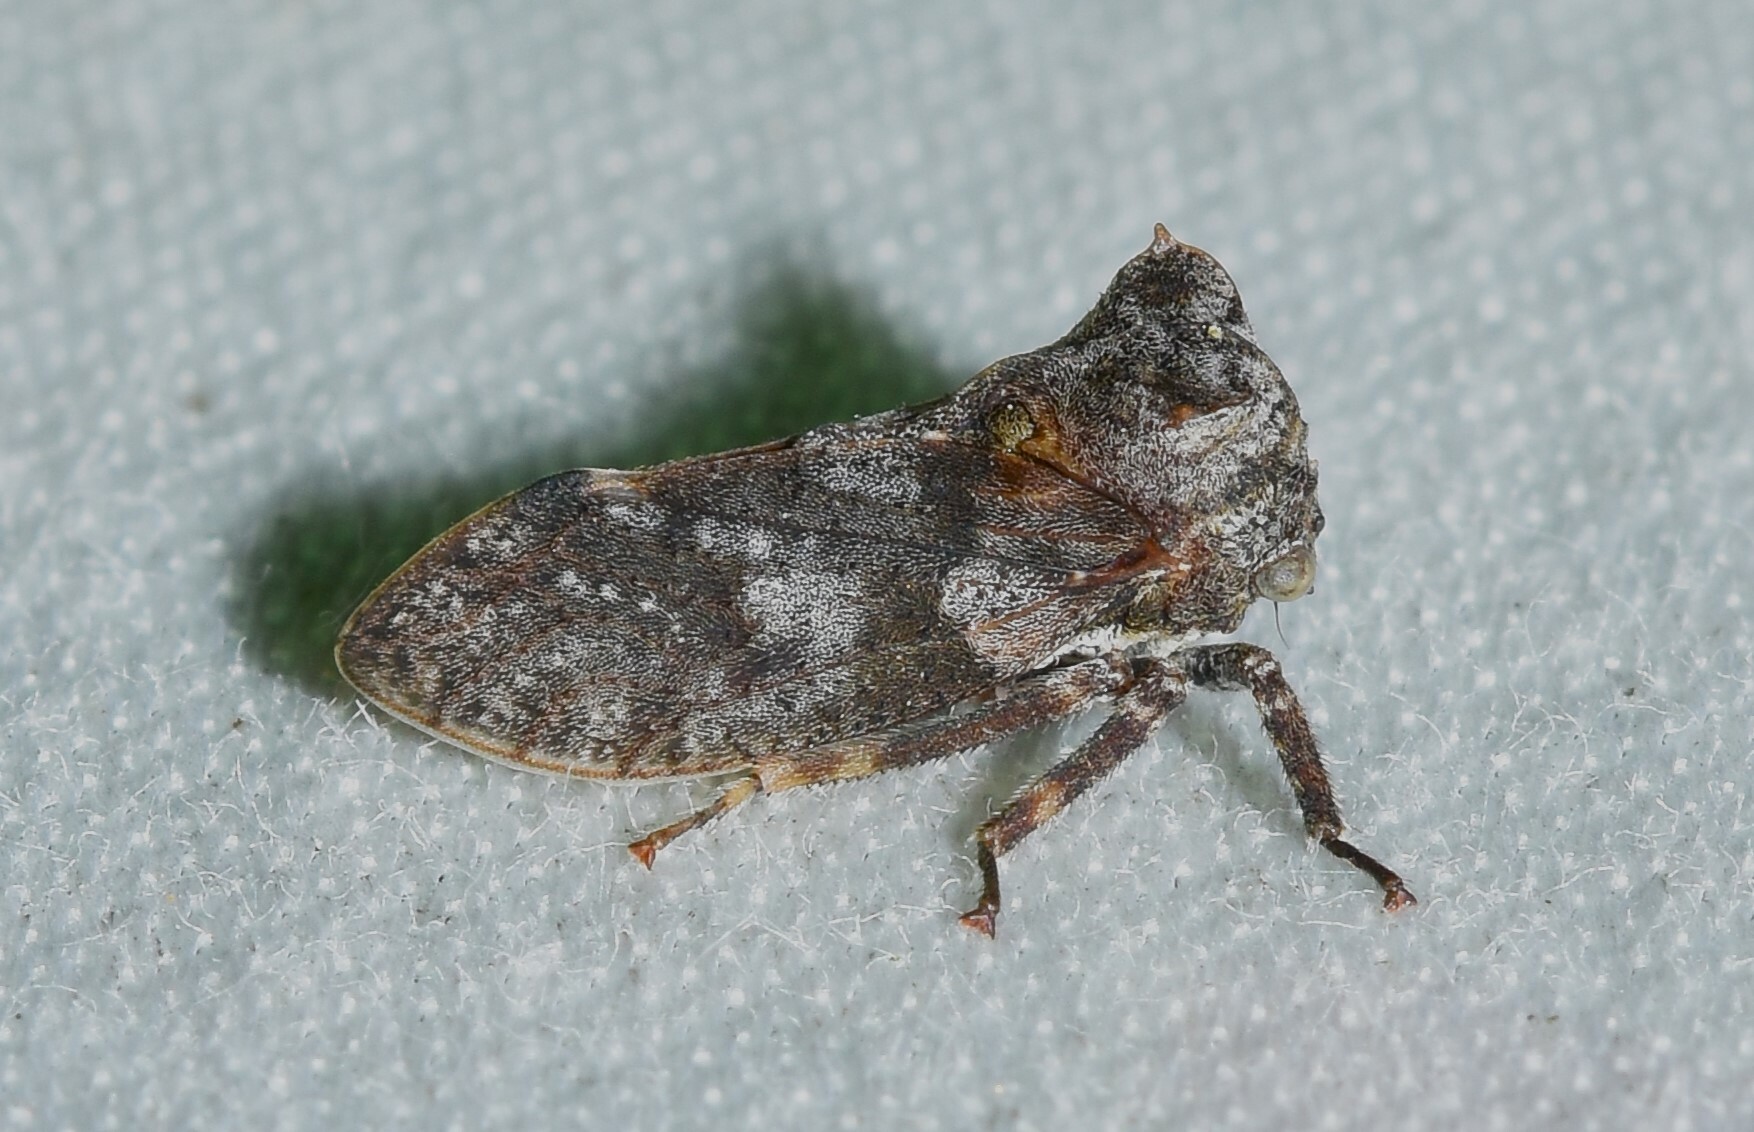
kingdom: Animalia
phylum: Arthropoda
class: Insecta
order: Hemiptera
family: Membracidae
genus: Microcentrus
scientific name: Microcentrus perdita
